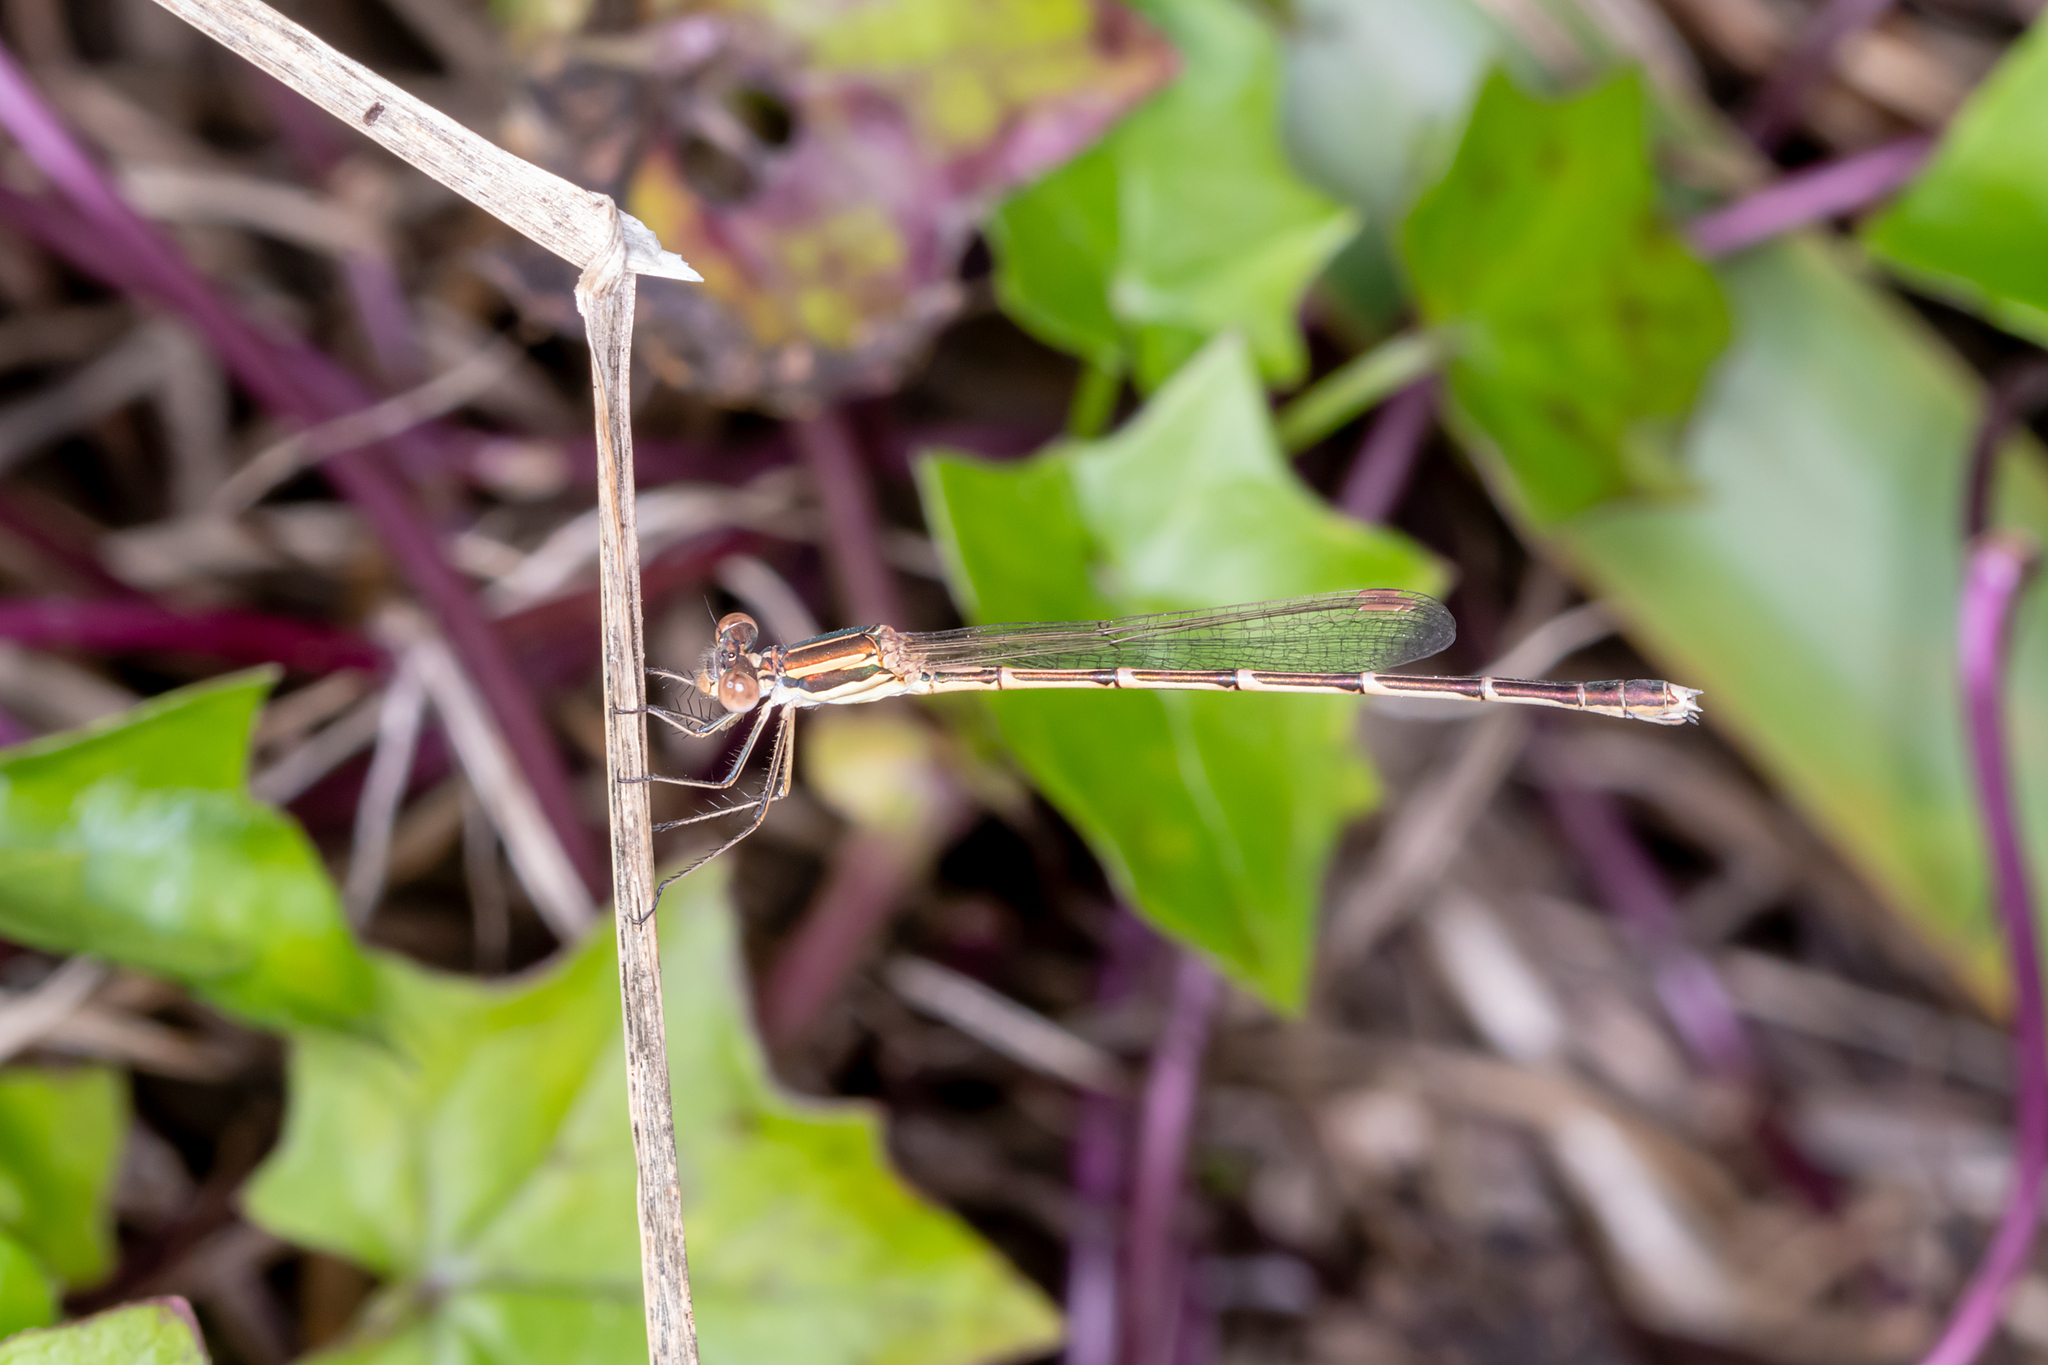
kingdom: Animalia
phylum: Arthropoda
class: Insecta
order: Odonata
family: Lestidae
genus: Austrolestes
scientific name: Austrolestes analis
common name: Slender ringtail
